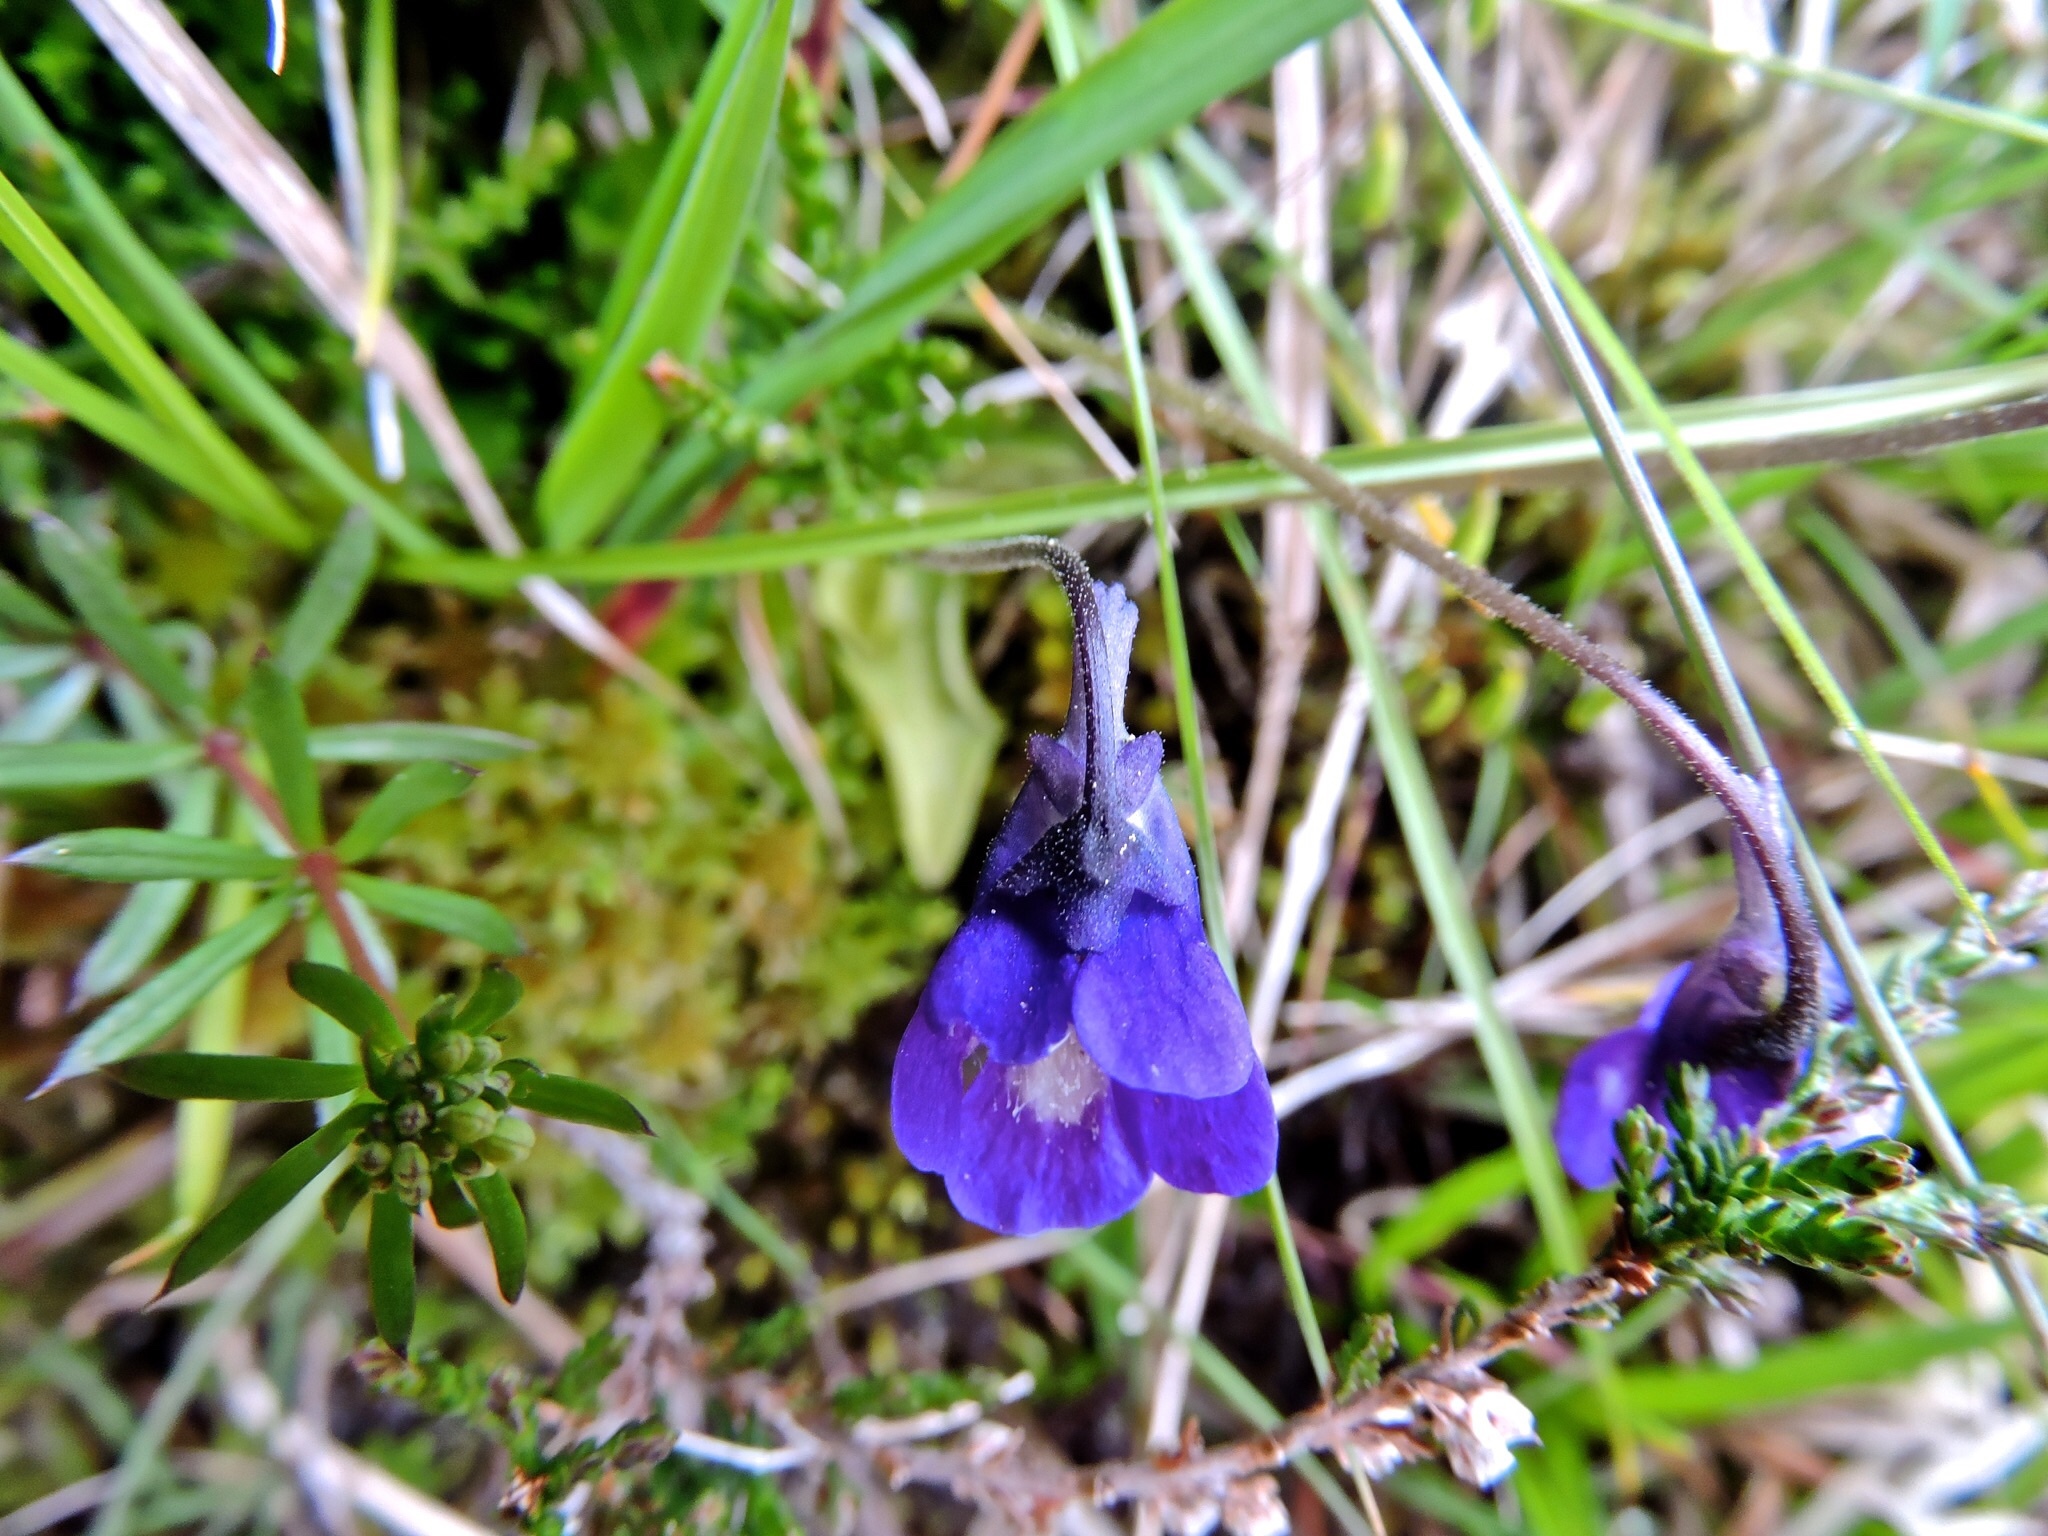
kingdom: Plantae
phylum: Tracheophyta
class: Magnoliopsida
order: Lamiales
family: Lentibulariaceae
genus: Pinguicula
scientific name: Pinguicula leptoceras
